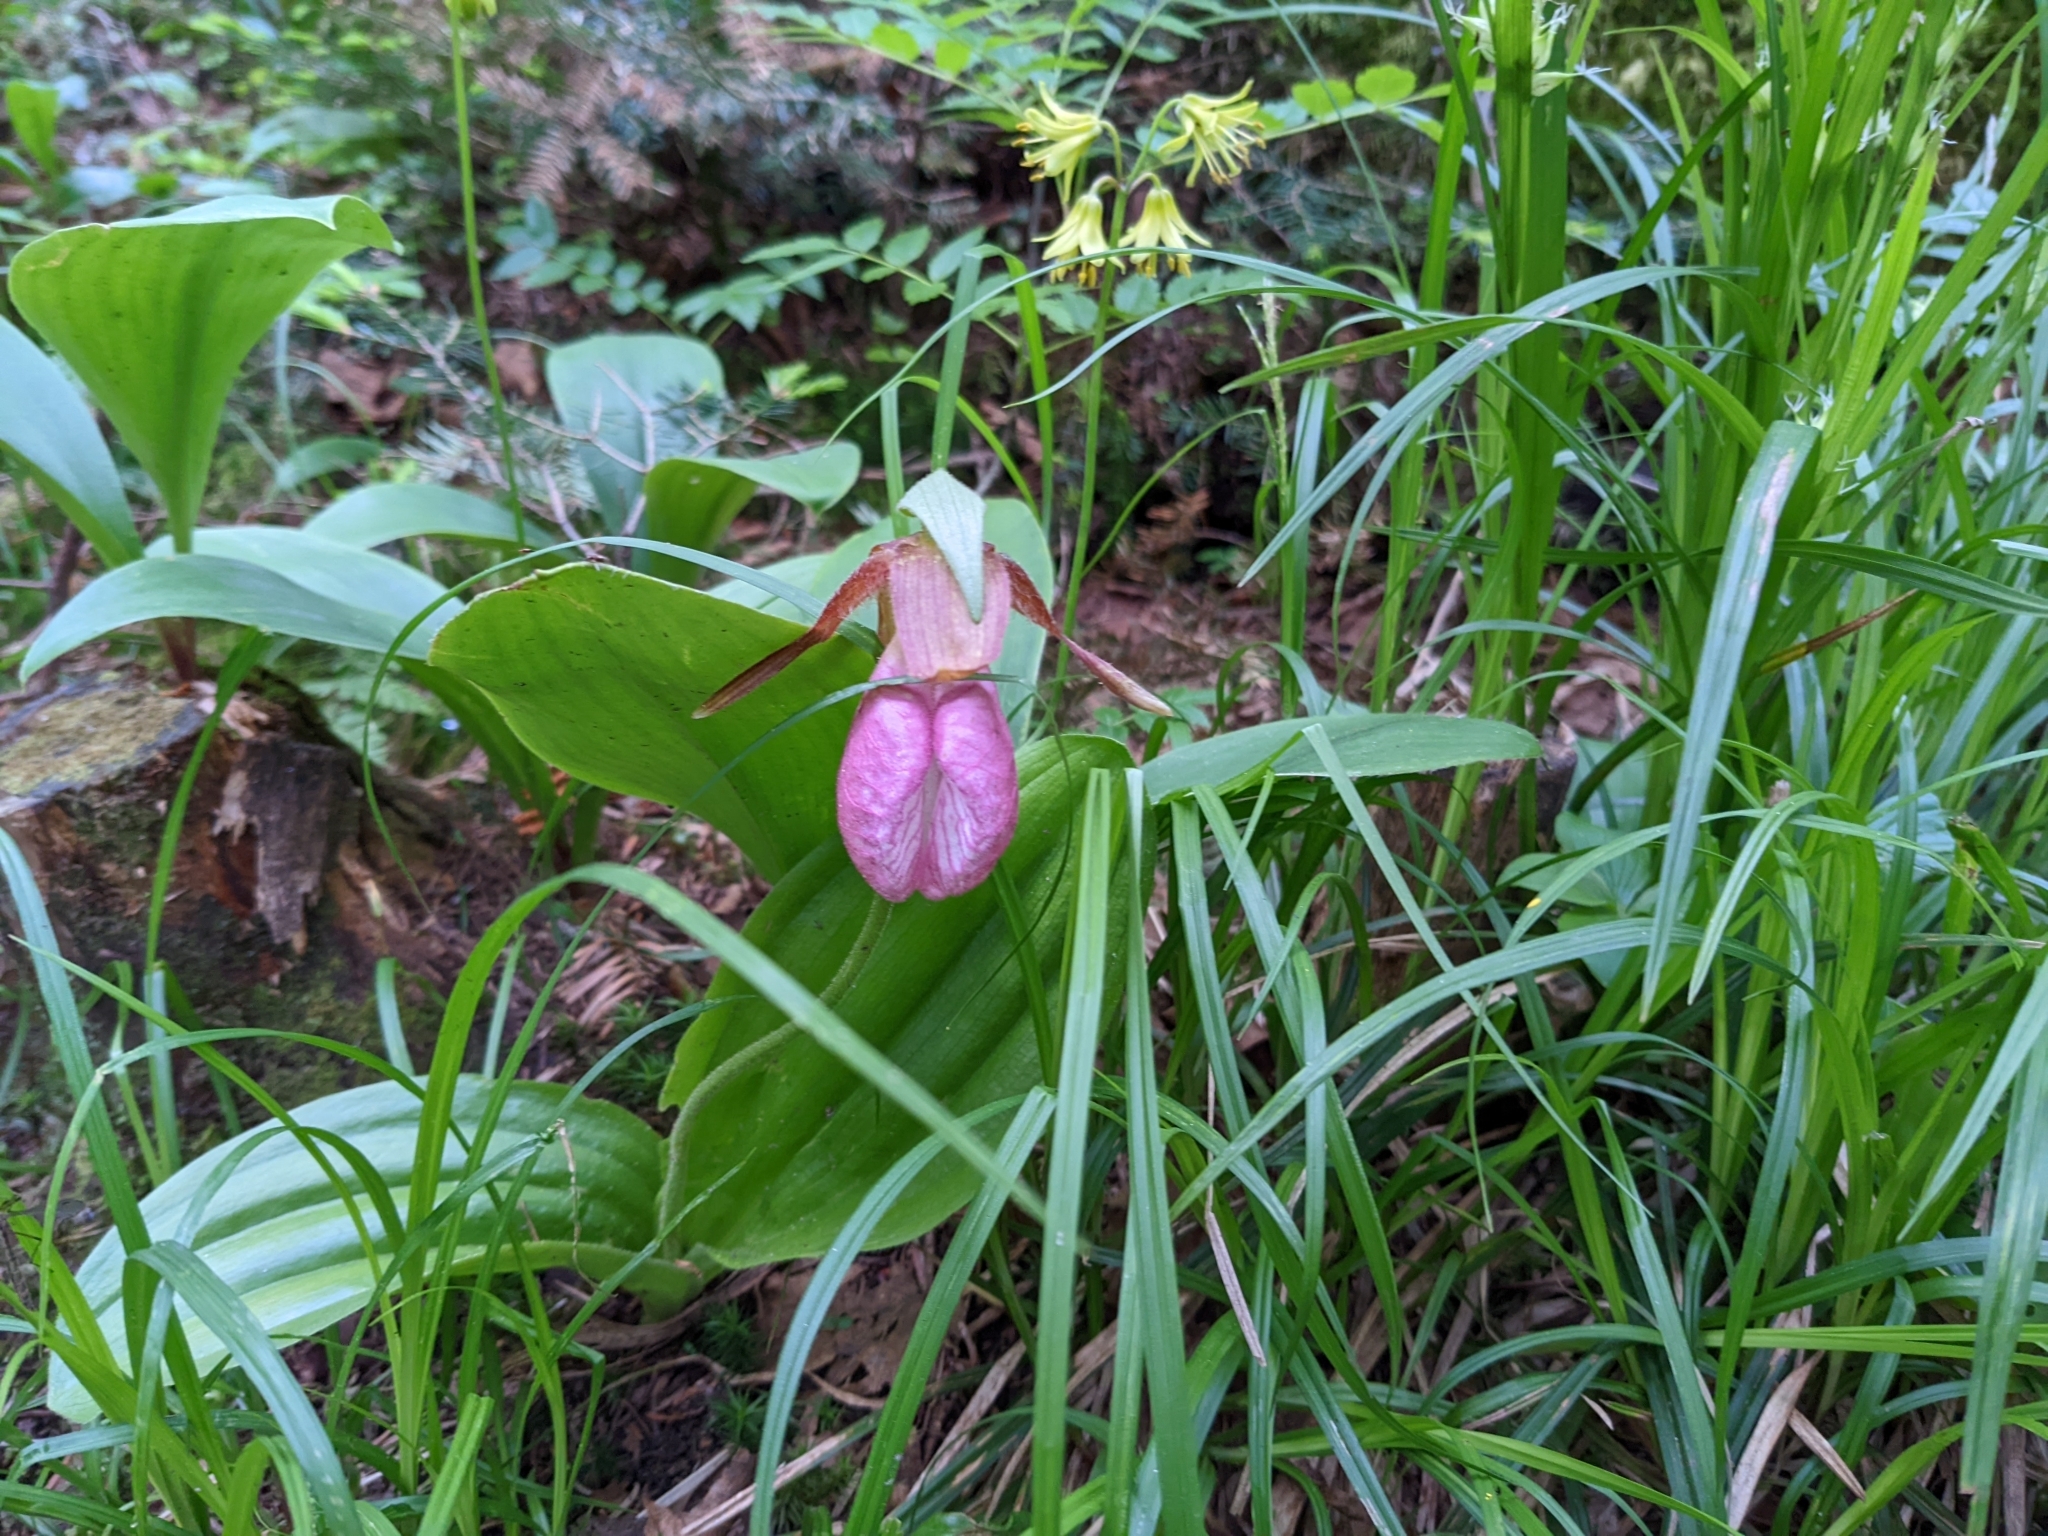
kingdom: Plantae
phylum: Tracheophyta
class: Liliopsida
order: Asparagales
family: Orchidaceae
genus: Cypripedium
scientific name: Cypripedium acaule
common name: Pink lady's-slipper
